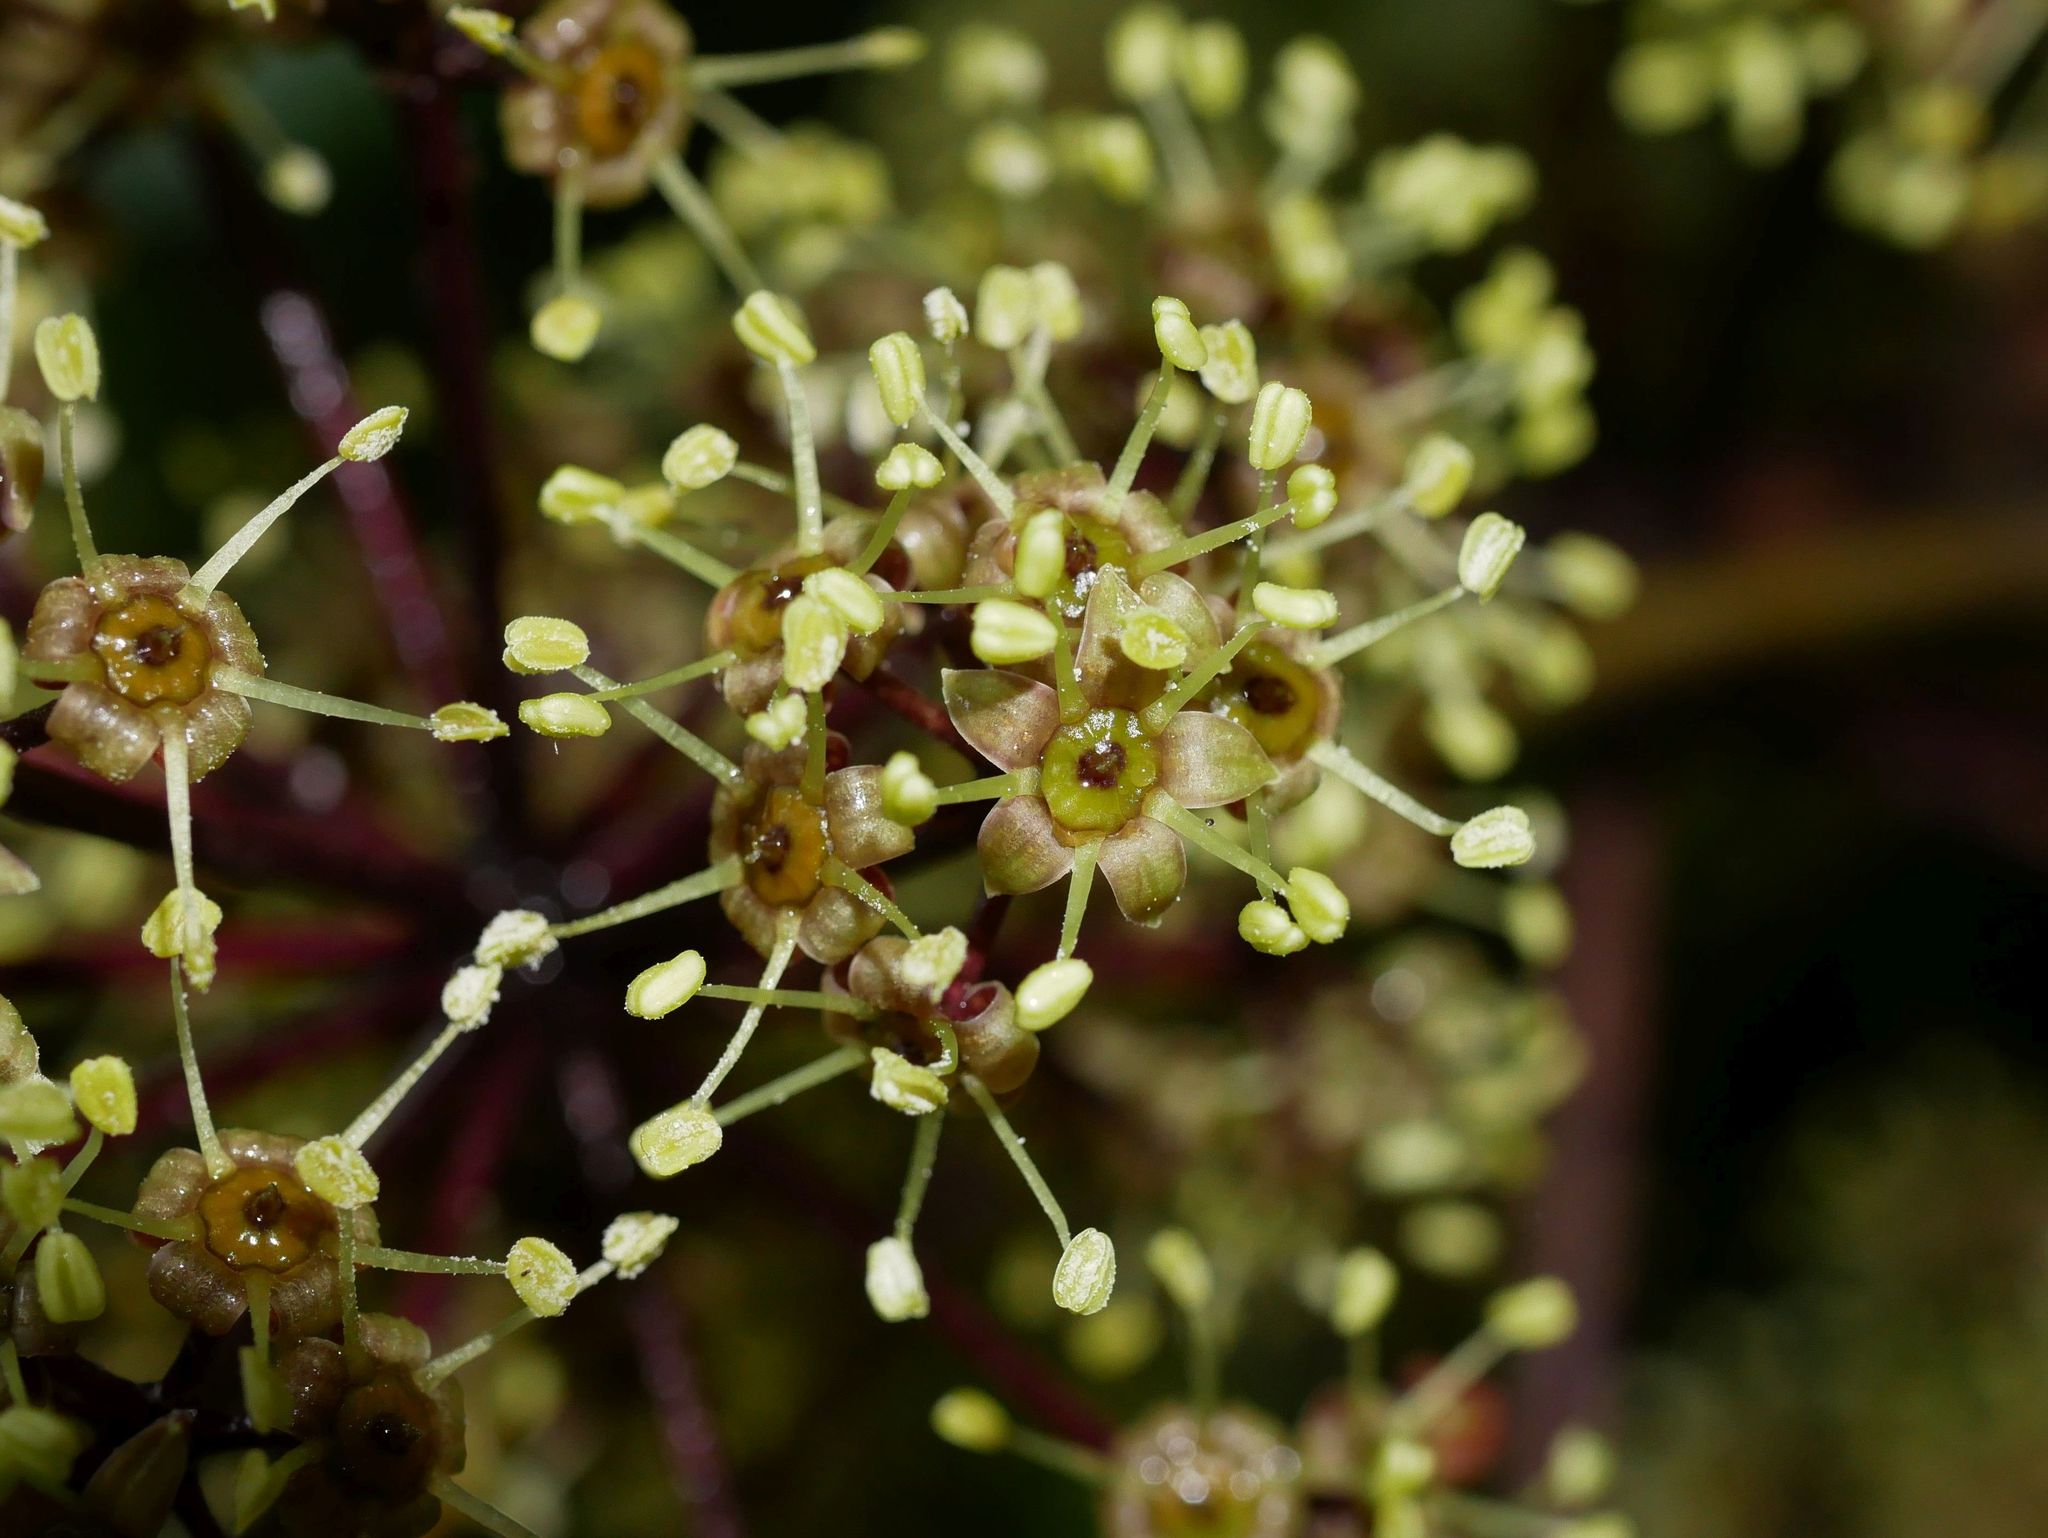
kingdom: Plantae
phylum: Tracheophyta
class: Magnoliopsida
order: Apiales
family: Araliaceae
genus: Neopanax
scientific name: Neopanax arboreus
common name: Five-fingers
